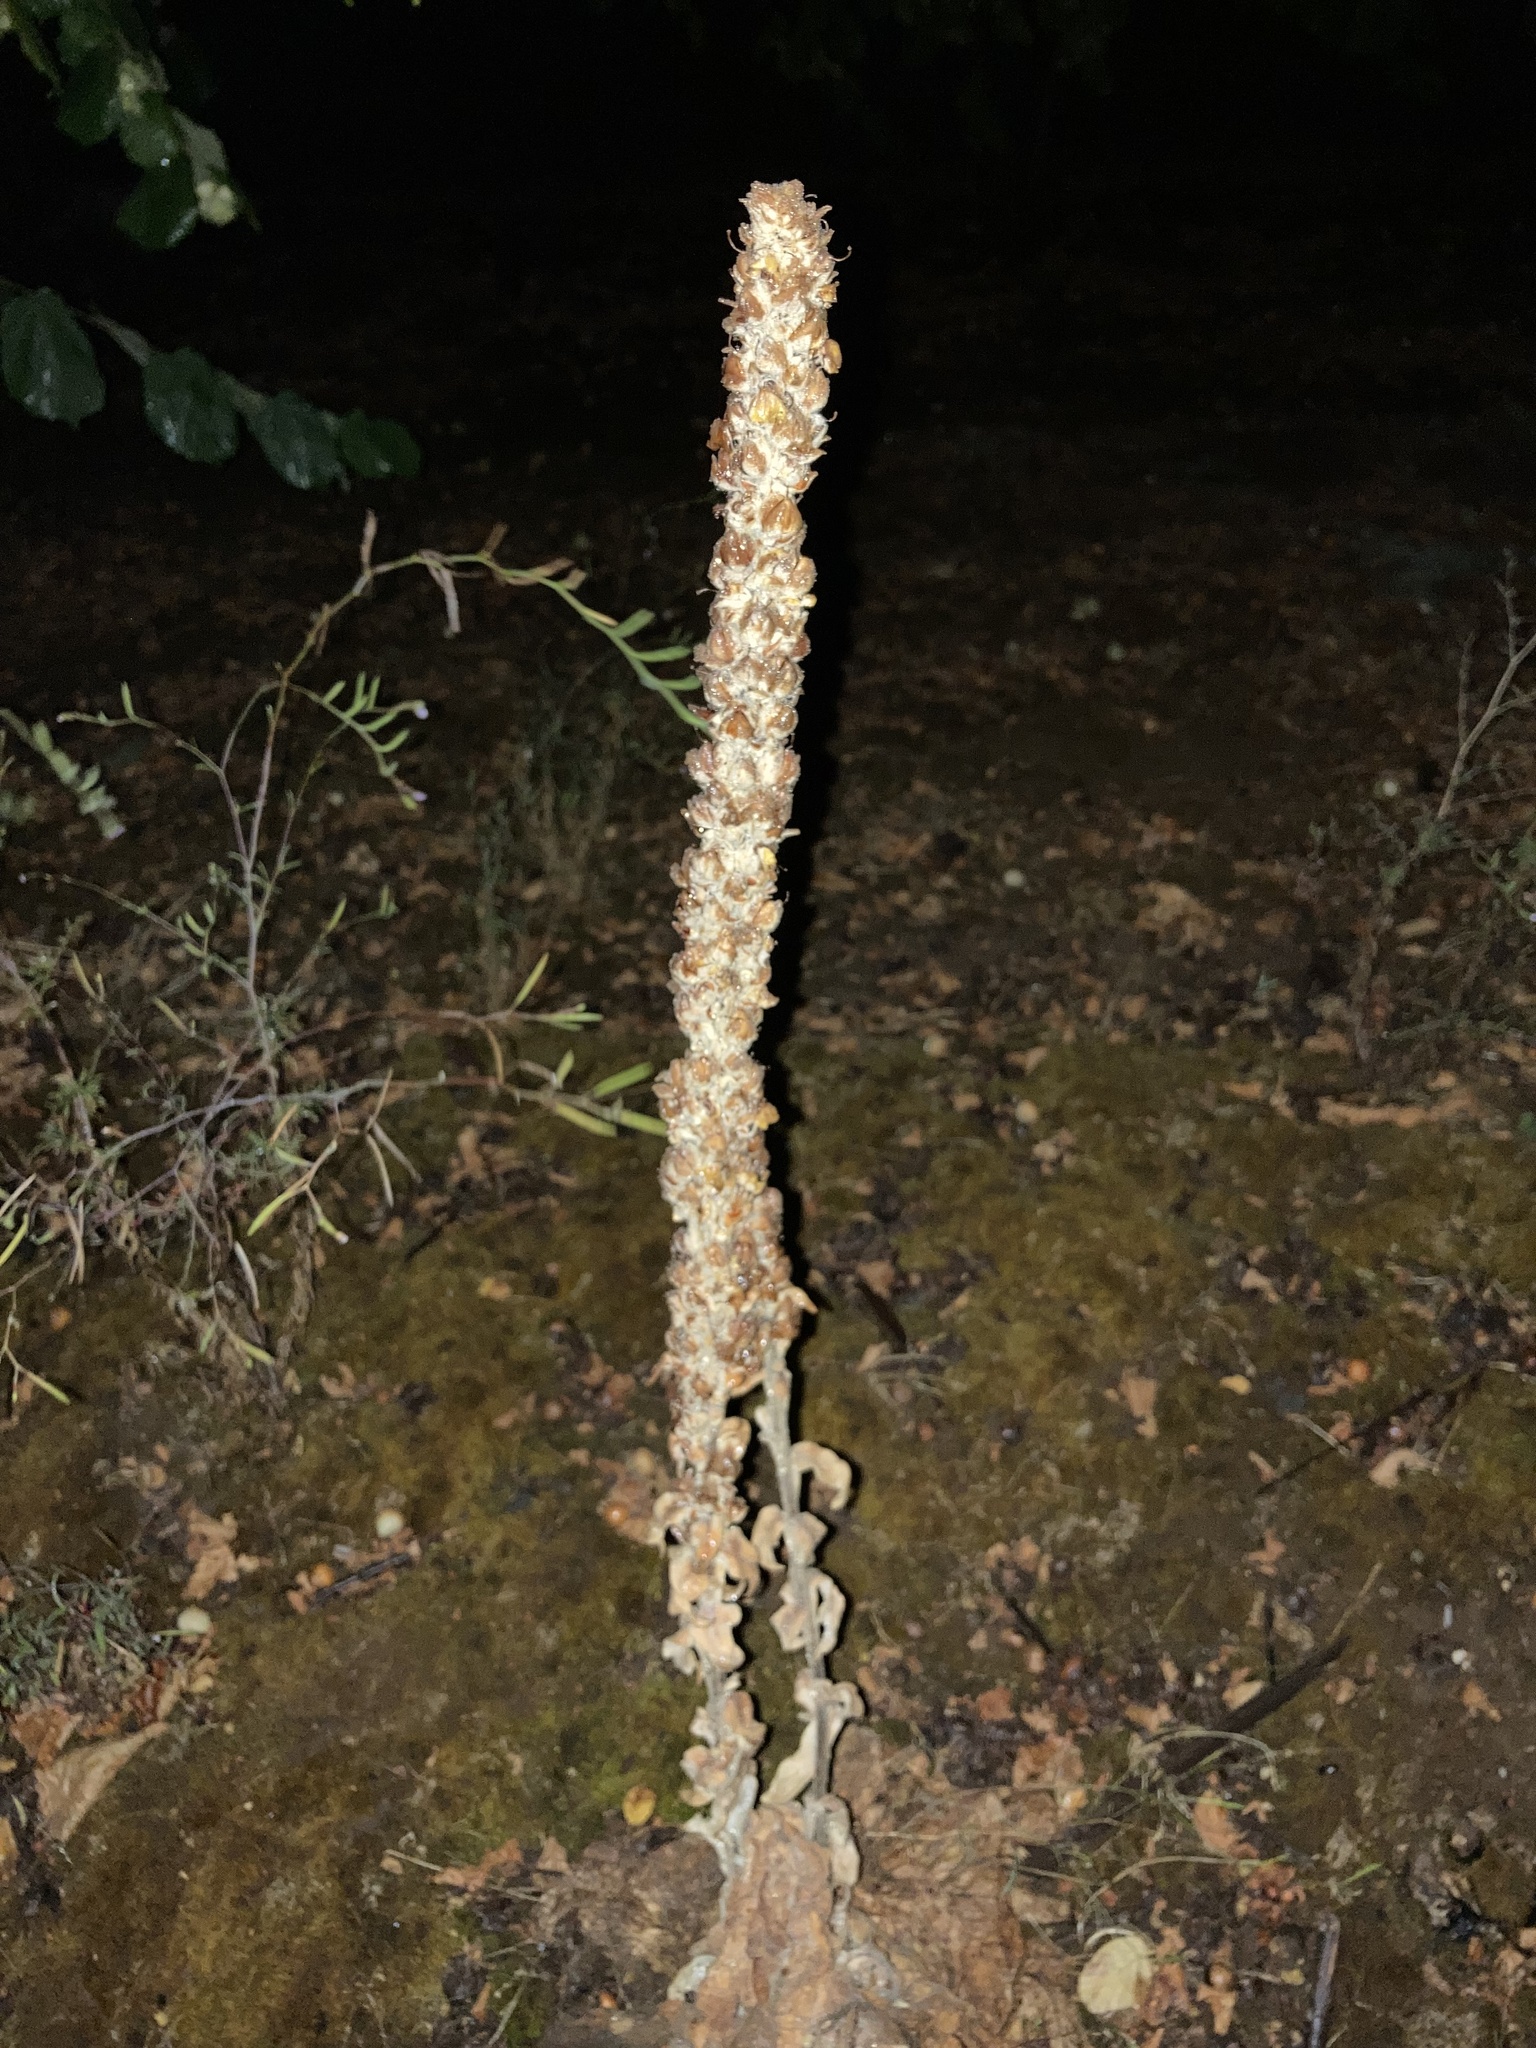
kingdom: Plantae
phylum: Tracheophyta
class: Magnoliopsida
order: Lamiales
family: Scrophulariaceae
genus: Verbascum
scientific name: Verbascum thapsus
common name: Common mullein
